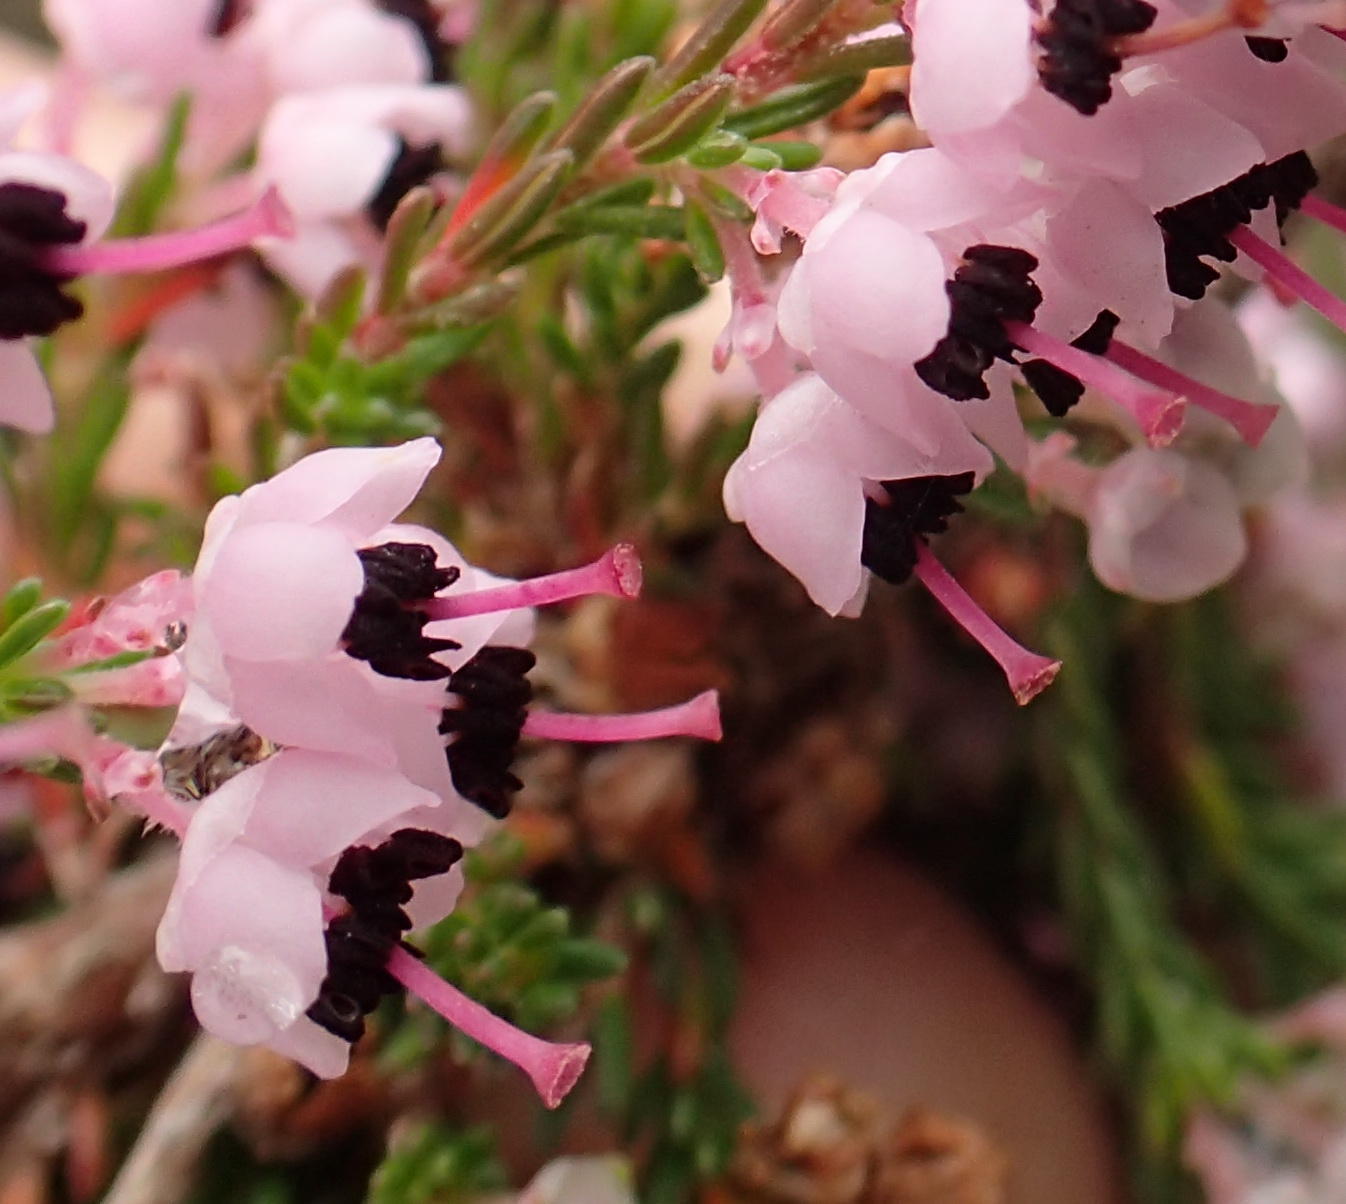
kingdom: Plantae
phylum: Tracheophyta
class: Magnoliopsida
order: Ericales
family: Ericaceae
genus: Erica
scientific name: Erica sparsa
